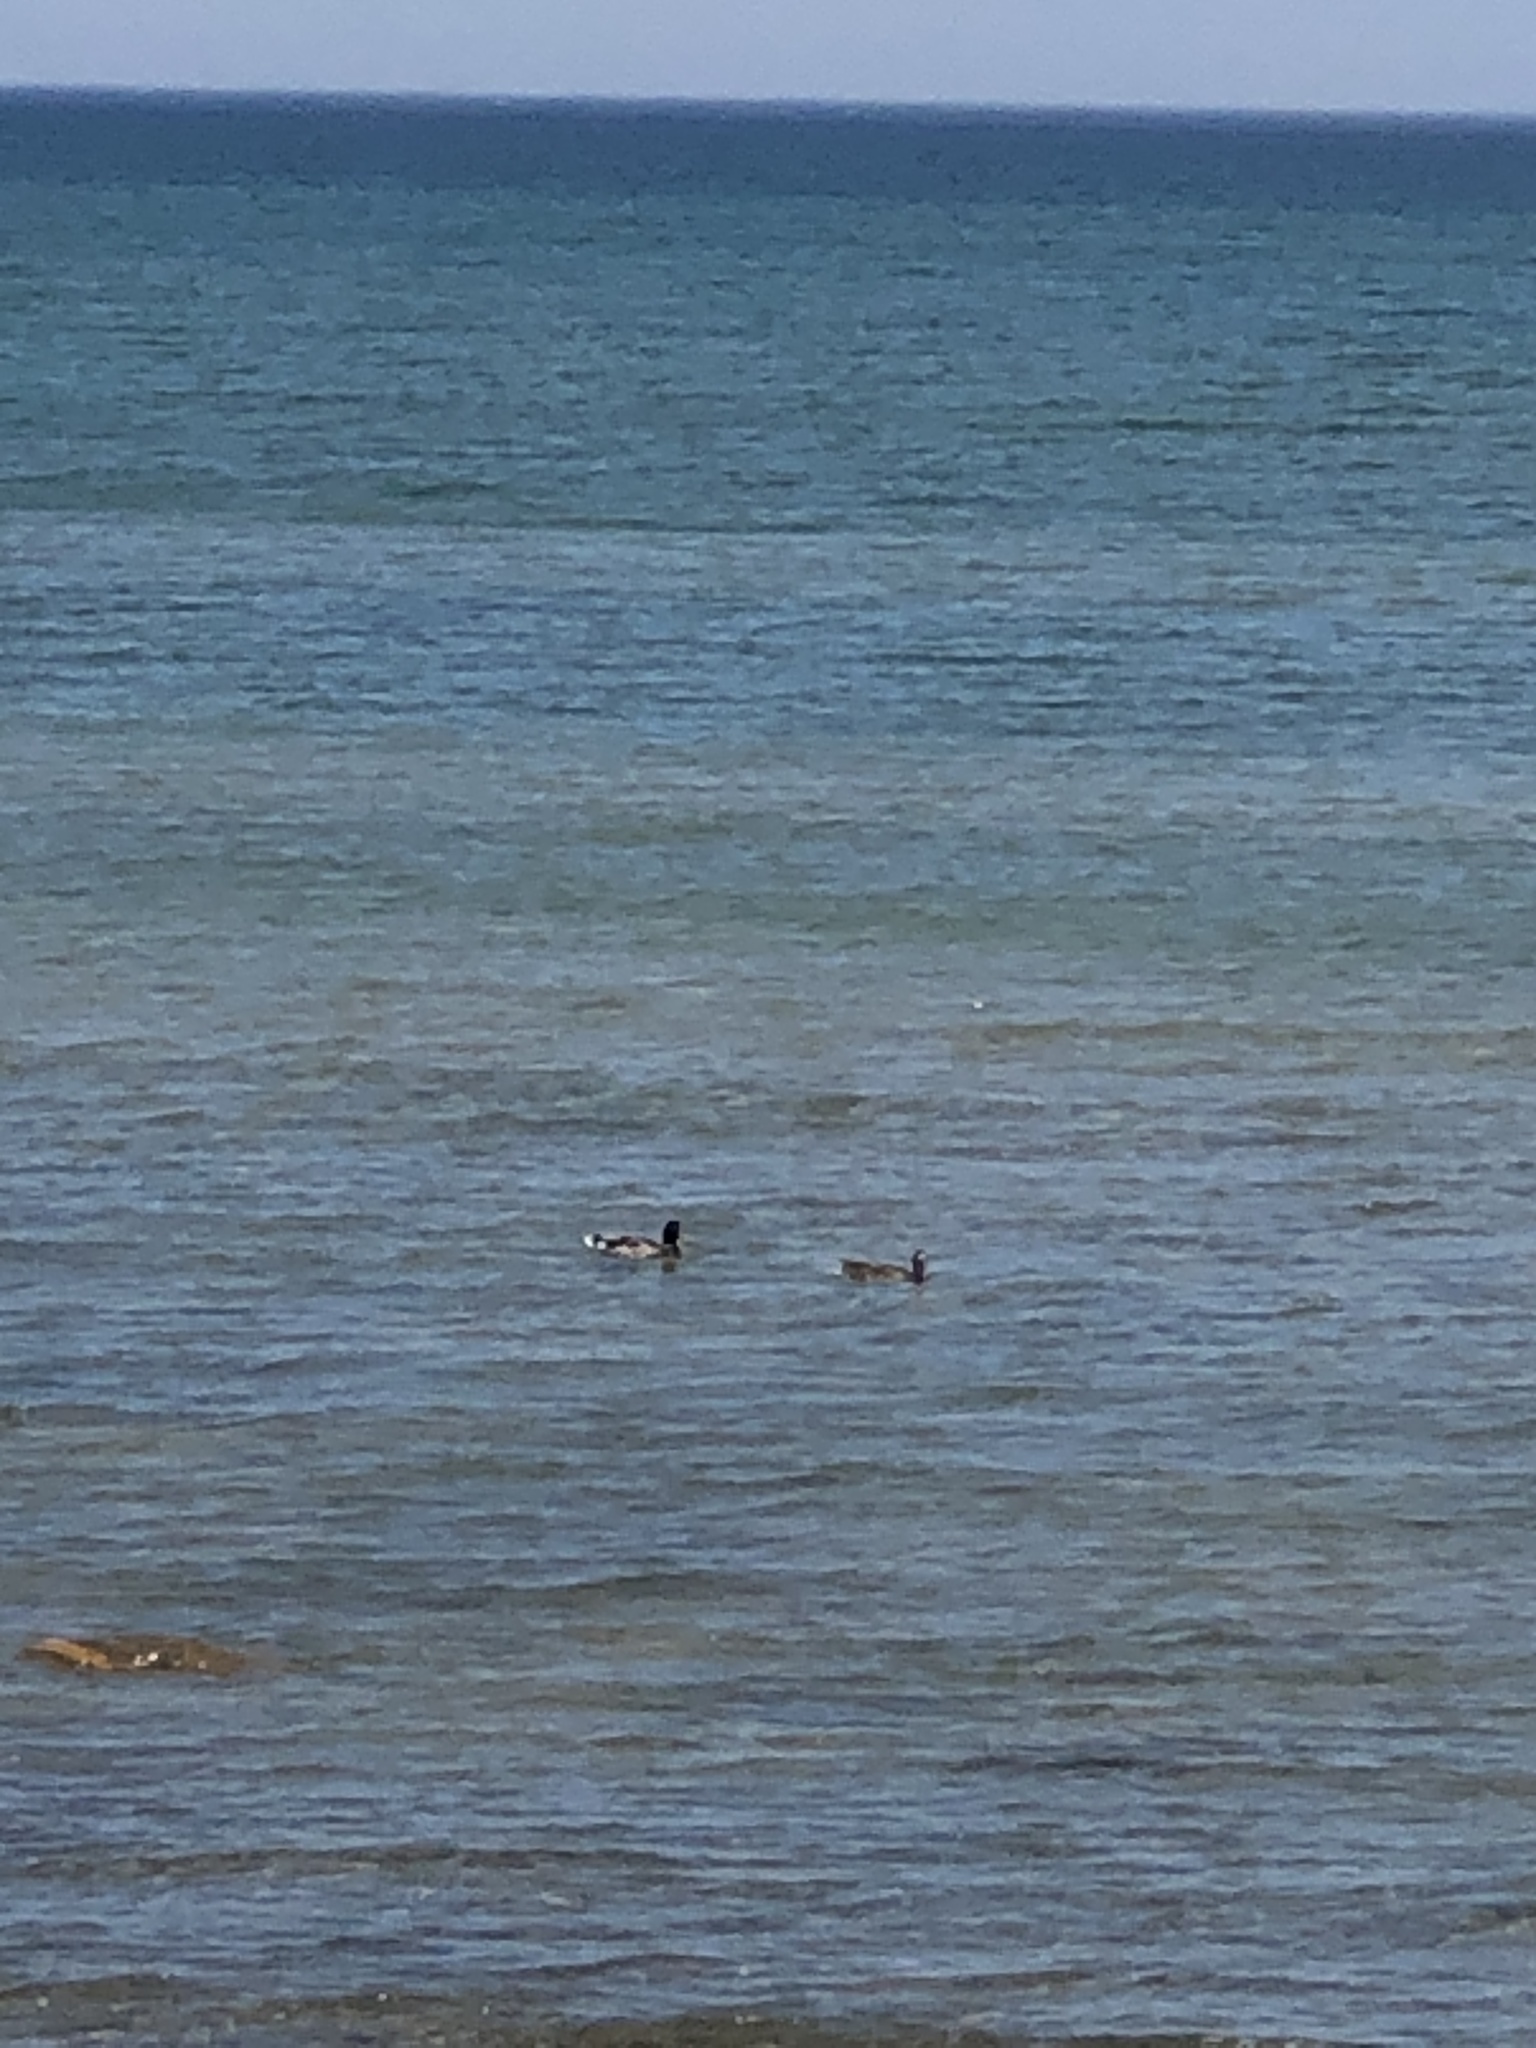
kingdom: Animalia
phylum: Chordata
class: Aves
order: Anseriformes
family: Anatidae
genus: Anas
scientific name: Anas platyrhynchos
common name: Mallard
